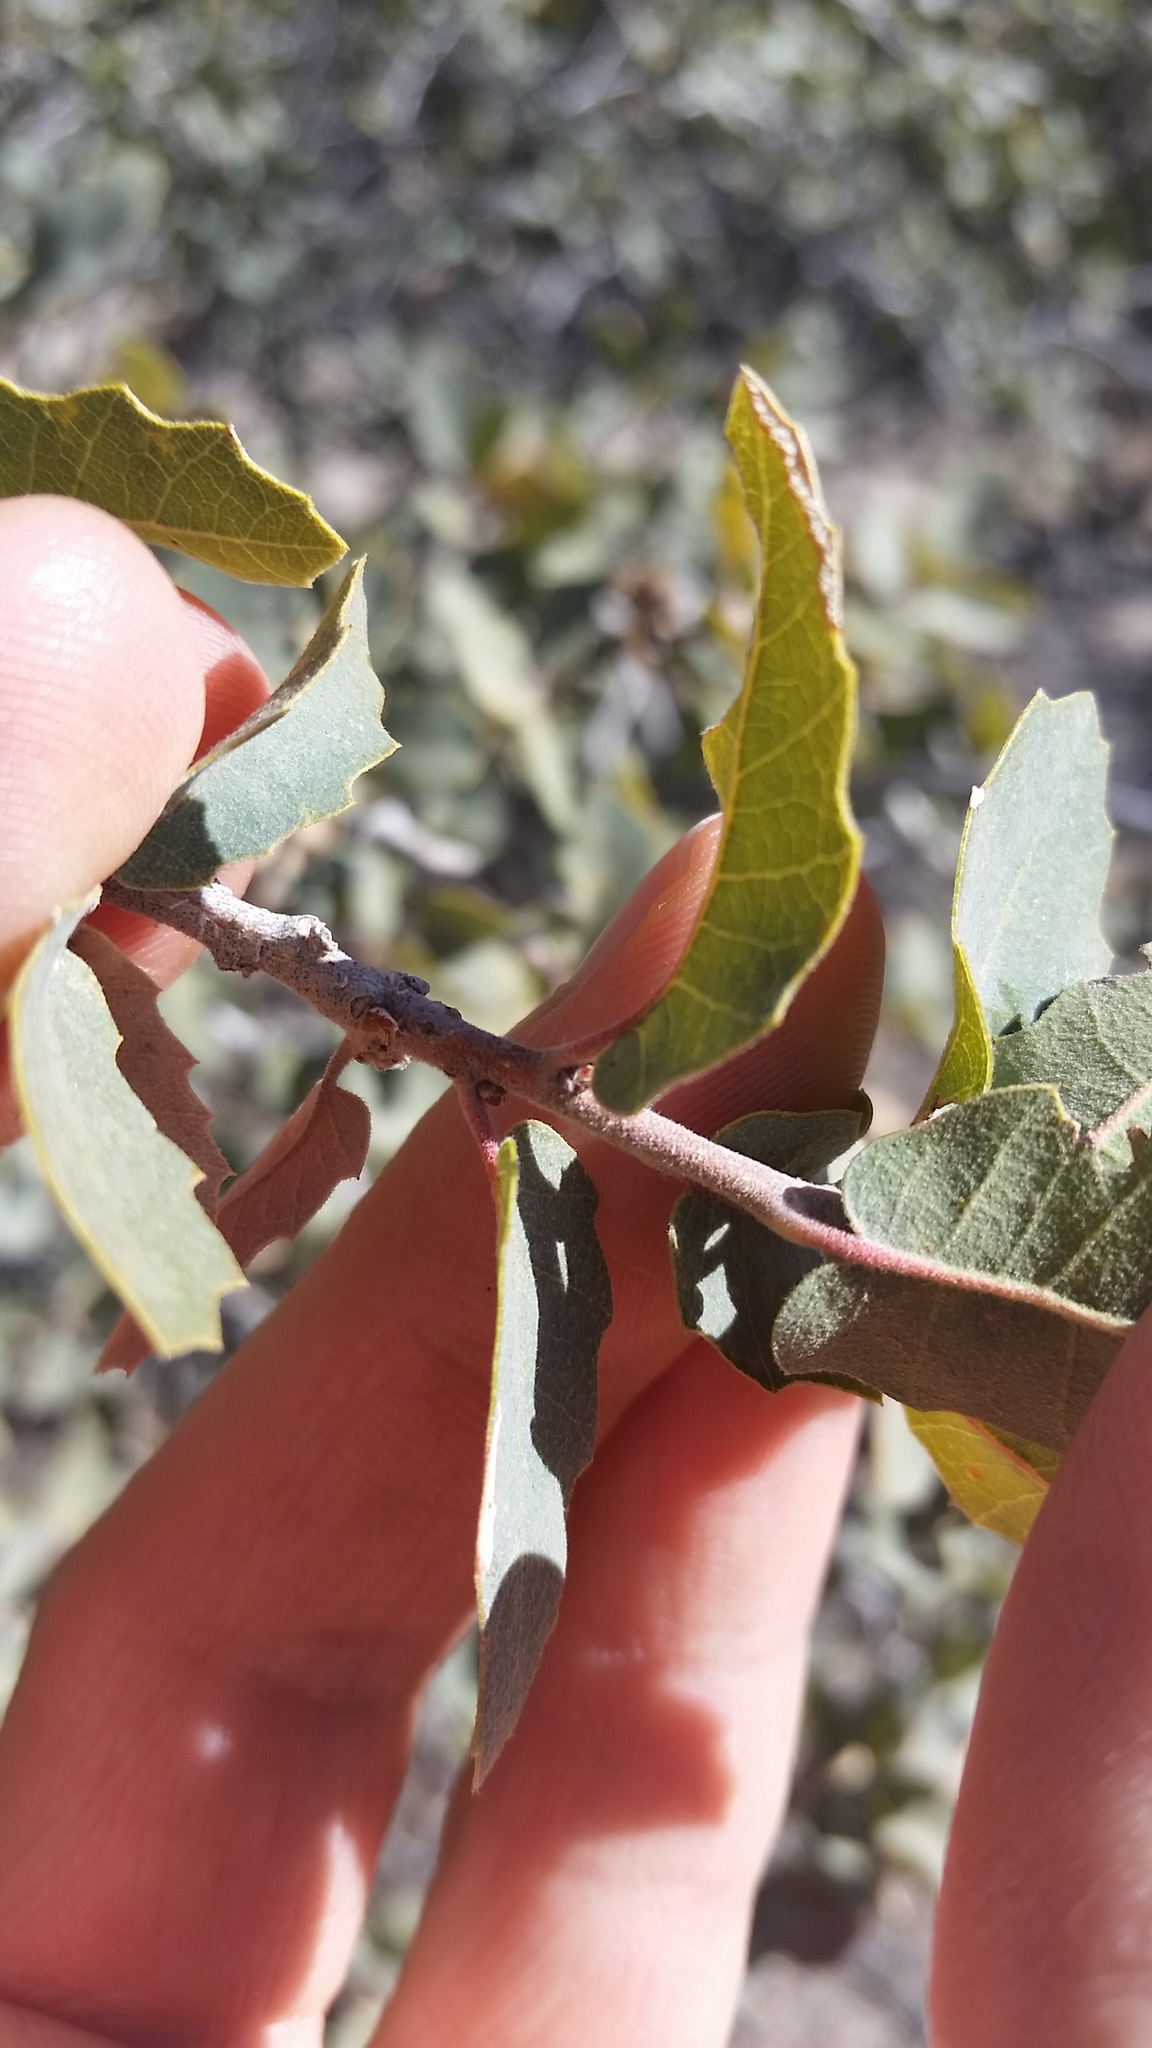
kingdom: Plantae
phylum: Tracheophyta
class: Magnoliopsida
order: Fagales
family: Fagaceae
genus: Quercus
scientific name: Quercus turbinella
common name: Sonoran scrub oak
